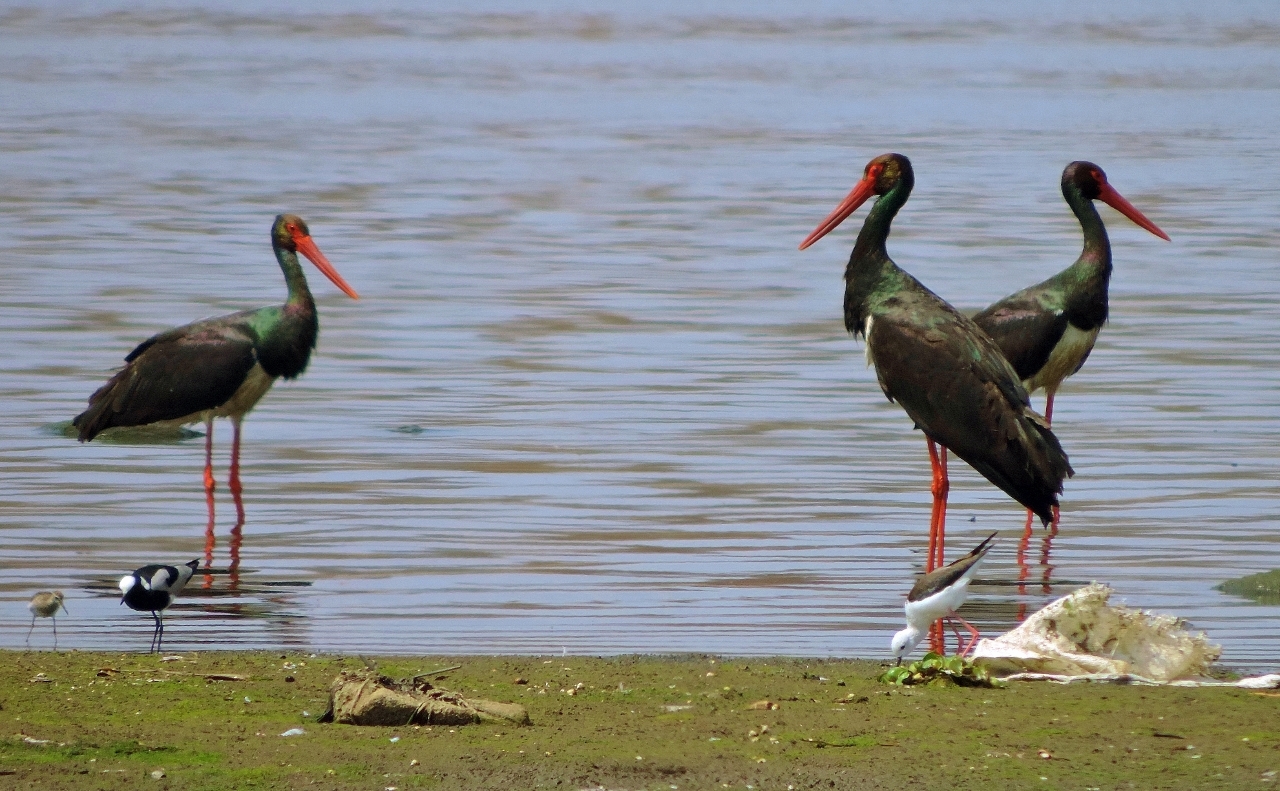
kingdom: Animalia
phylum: Chordata
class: Aves
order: Ciconiiformes
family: Ciconiidae
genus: Ciconia
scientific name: Ciconia nigra
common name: Black stork
